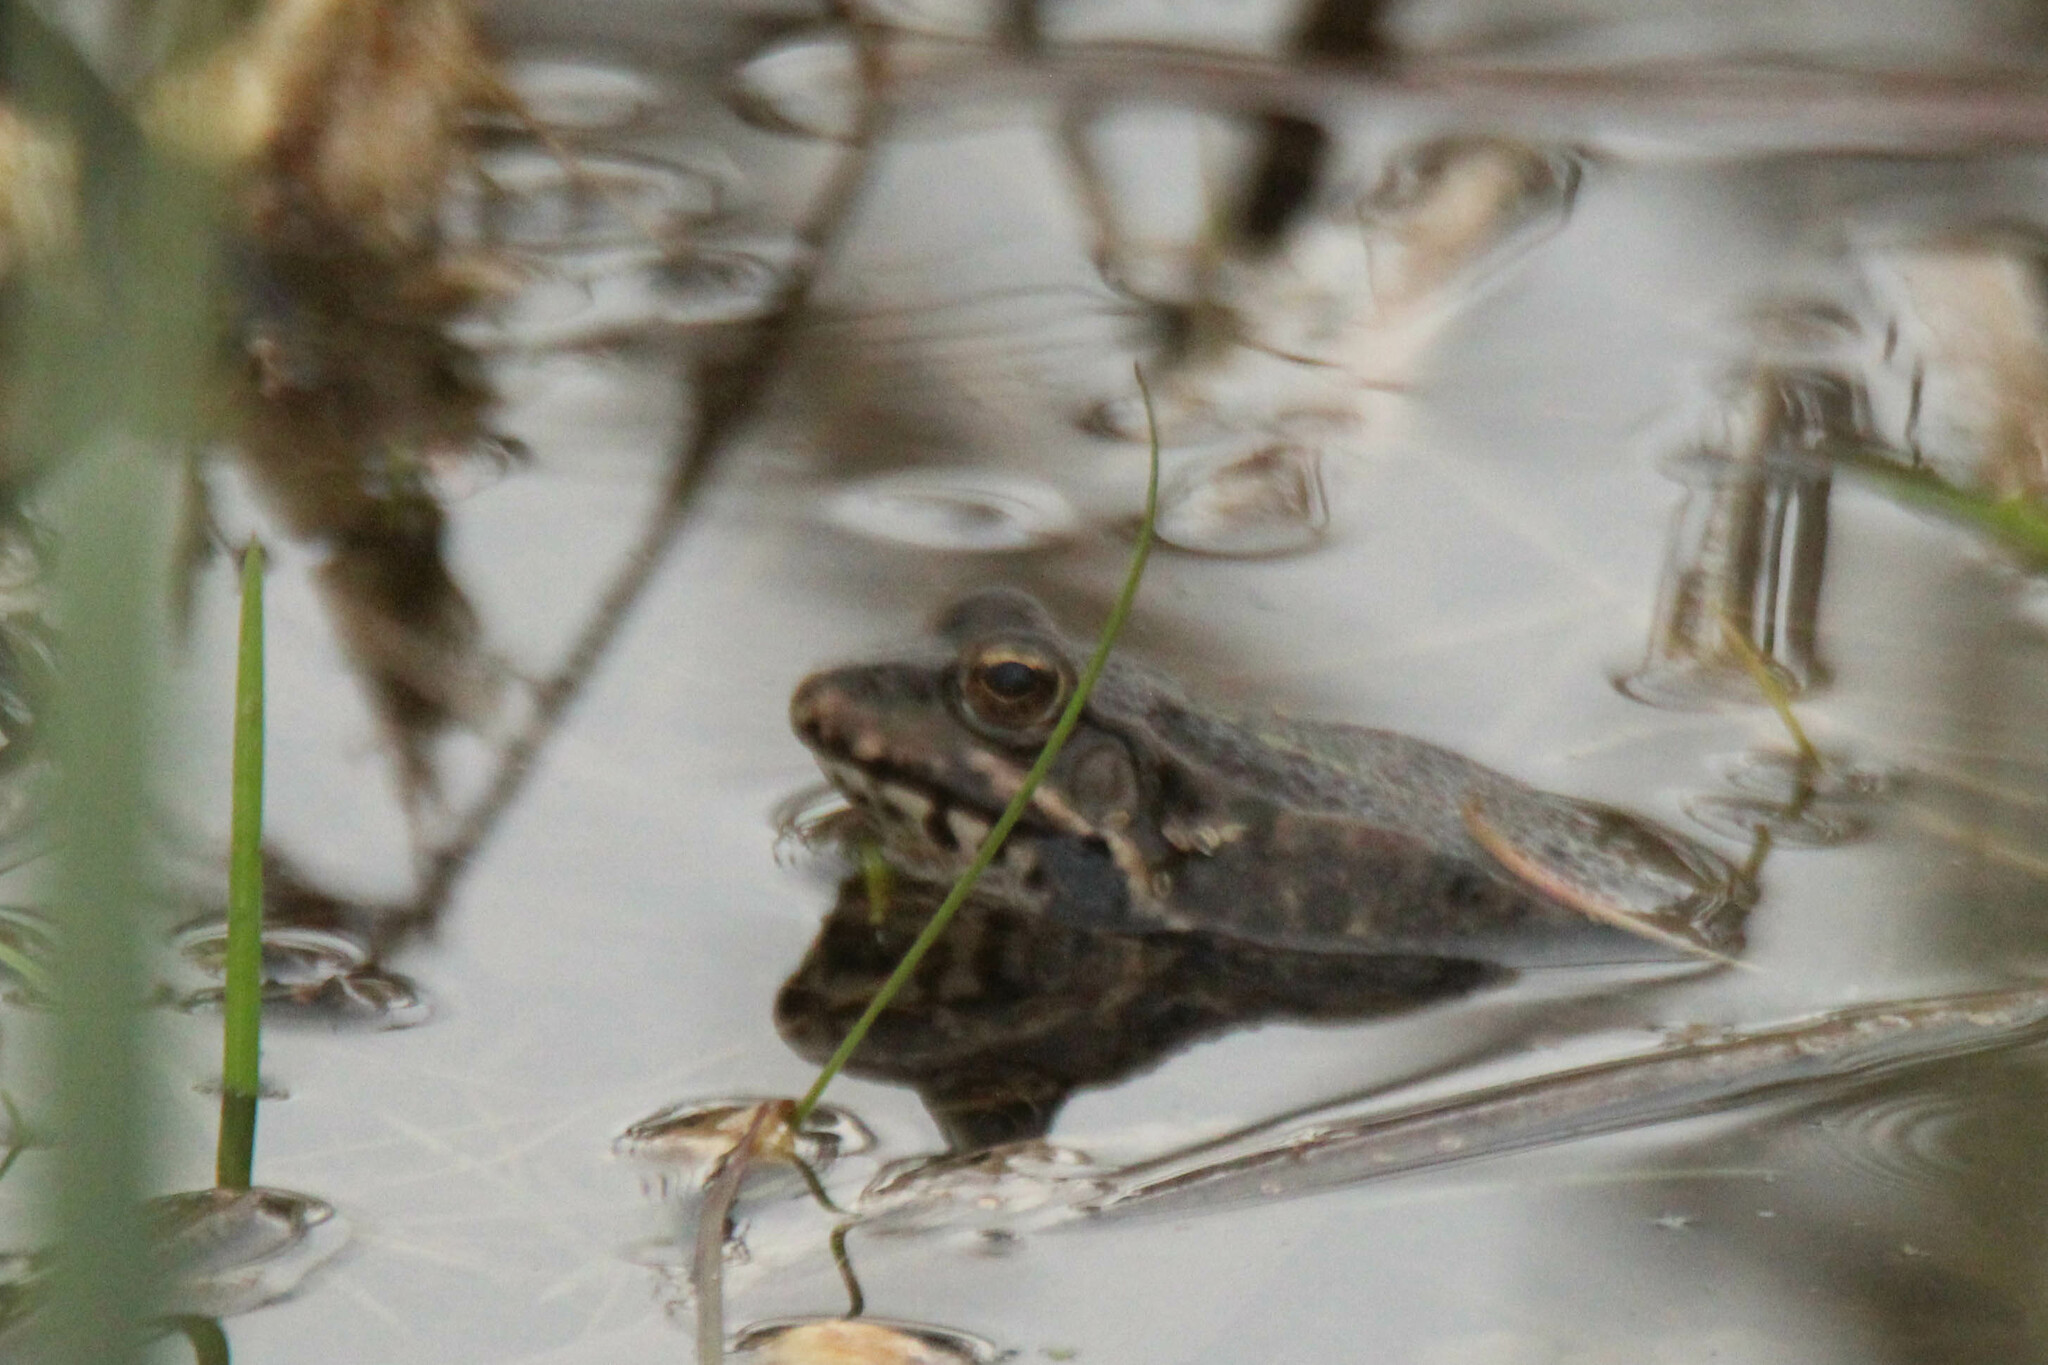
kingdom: Animalia
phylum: Chordata
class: Amphibia
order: Anura
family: Ranidae
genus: Pelophylax
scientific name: Pelophylax ridibundus
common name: Marsh frog
